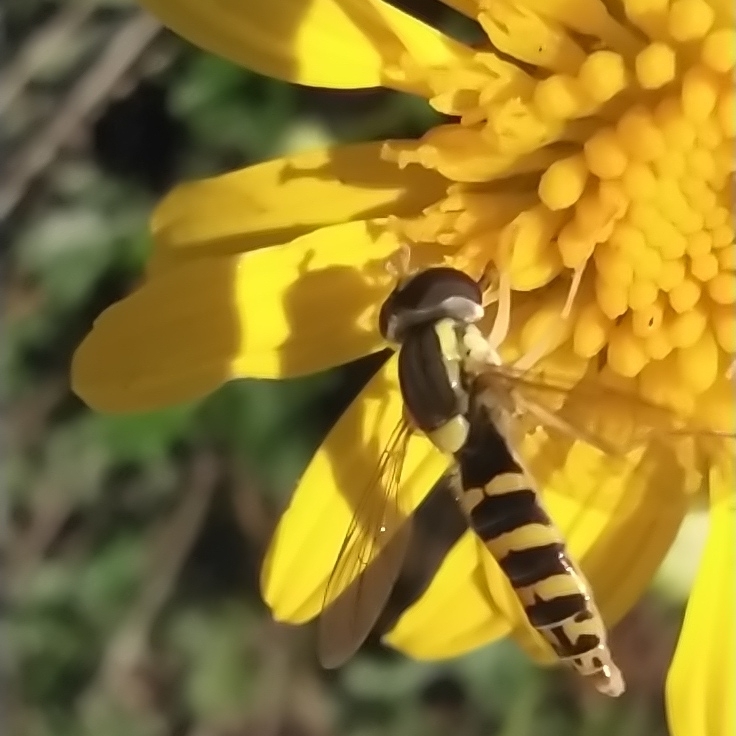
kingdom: Animalia
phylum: Arthropoda
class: Insecta
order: Diptera
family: Syrphidae
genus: Sphaerophoria
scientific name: Sphaerophoria scripta
